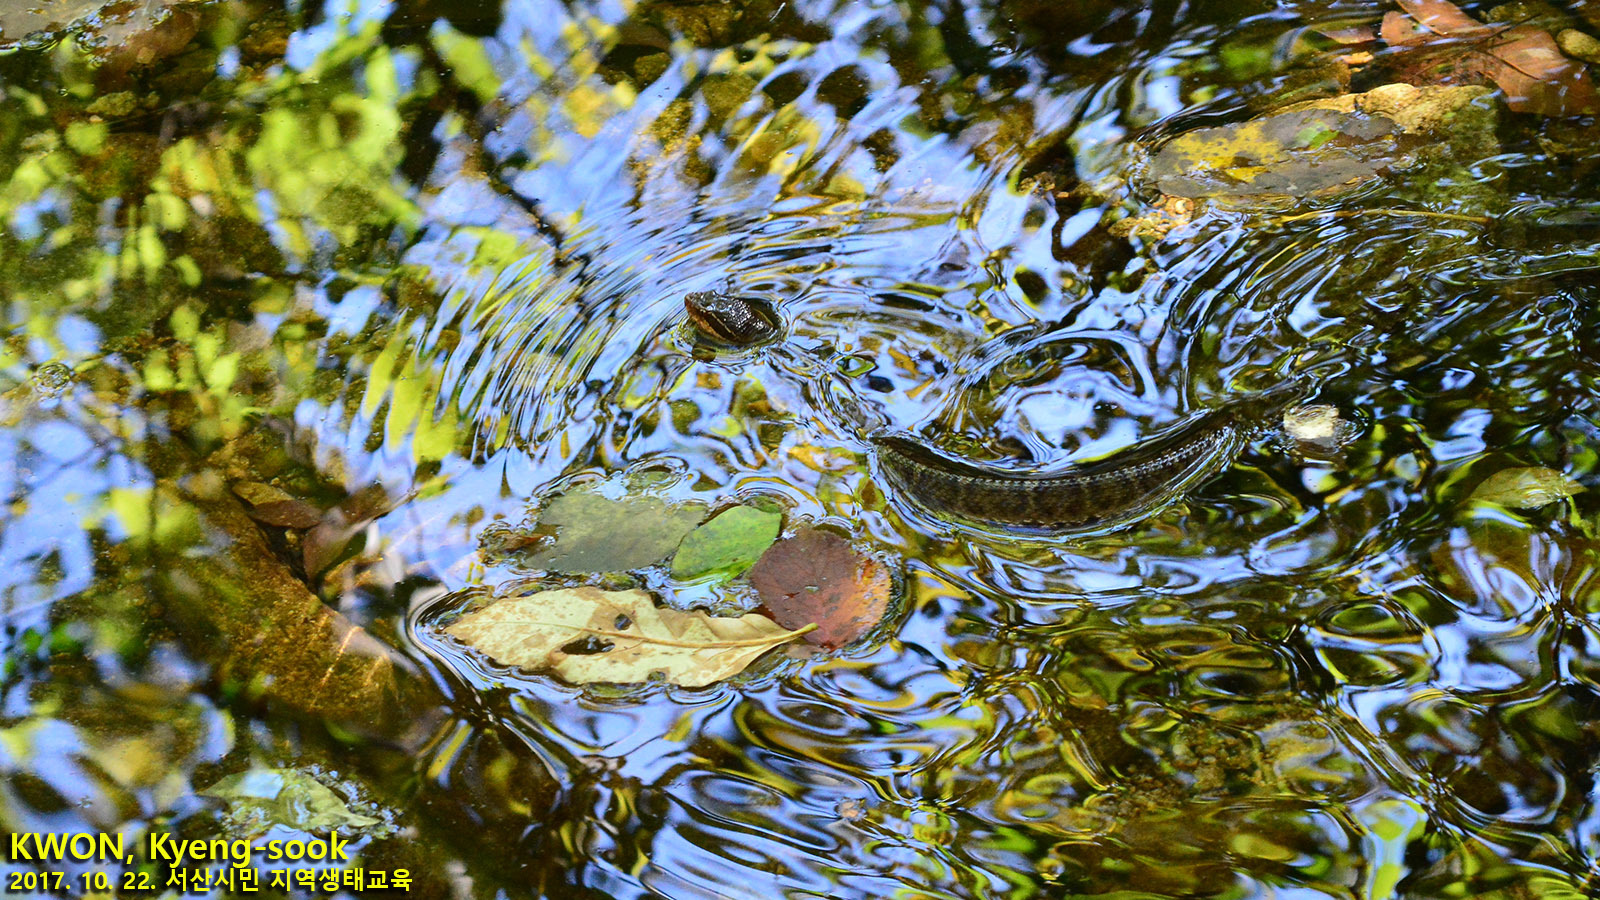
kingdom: Animalia
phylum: Chordata
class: Squamata
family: Viperidae
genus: Gloydius
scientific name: Gloydius ussuriensis
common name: Ussuri mamushi
